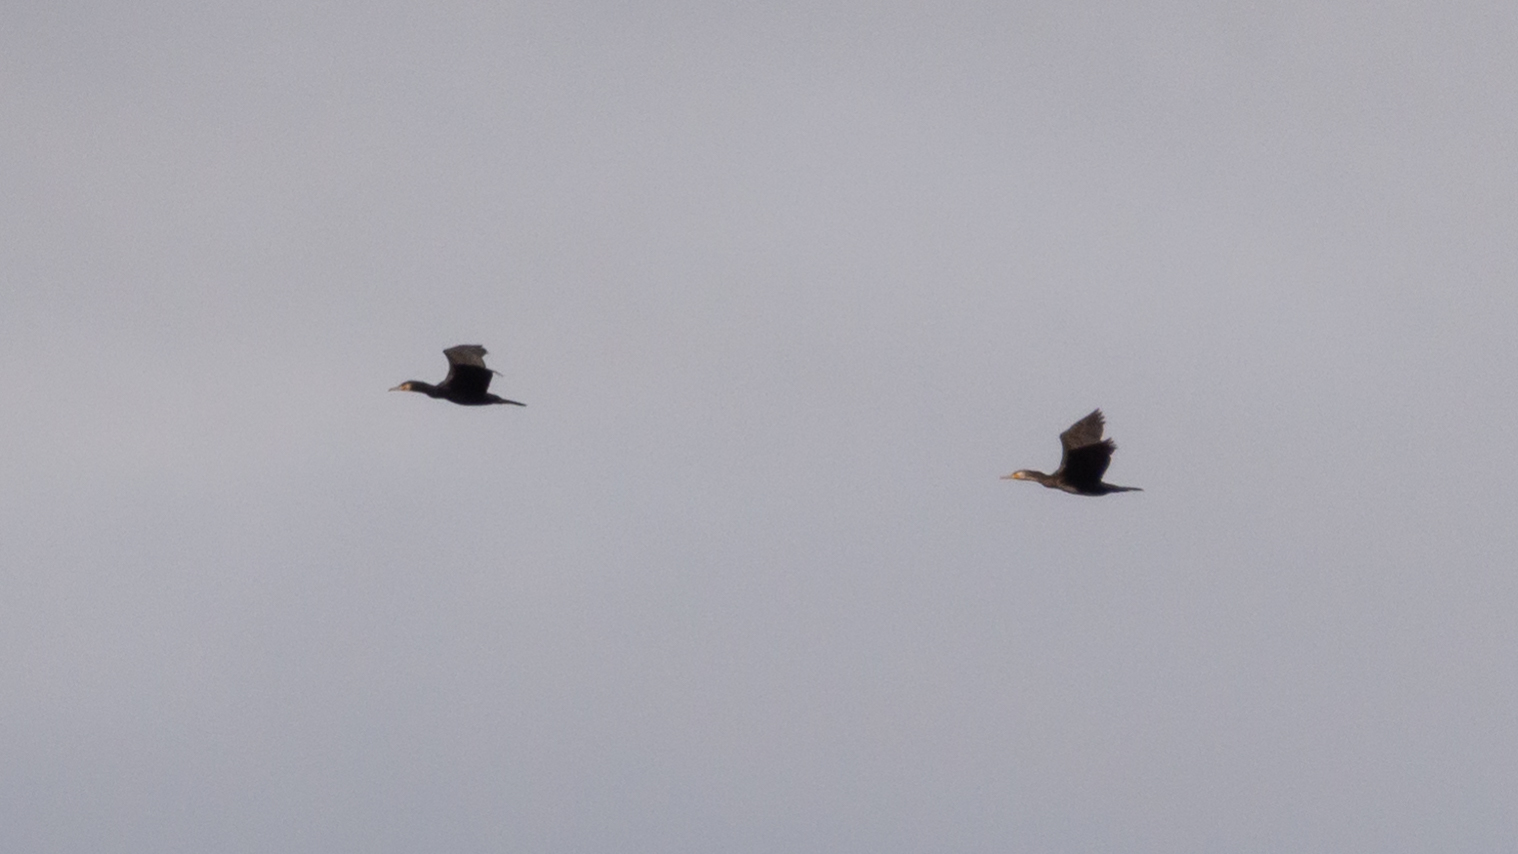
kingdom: Animalia
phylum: Chordata
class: Aves
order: Suliformes
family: Phalacrocoracidae
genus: Phalacrocorax
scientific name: Phalacrocorax carbo
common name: Great cormorant
